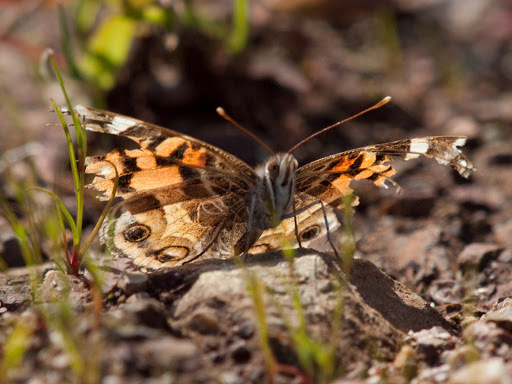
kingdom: Animalia
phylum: Arthropoda
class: Insecta
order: Lepidoptera
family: Nymphalidae
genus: Vanessa
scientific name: Vanessa virginiensis
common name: American lady
